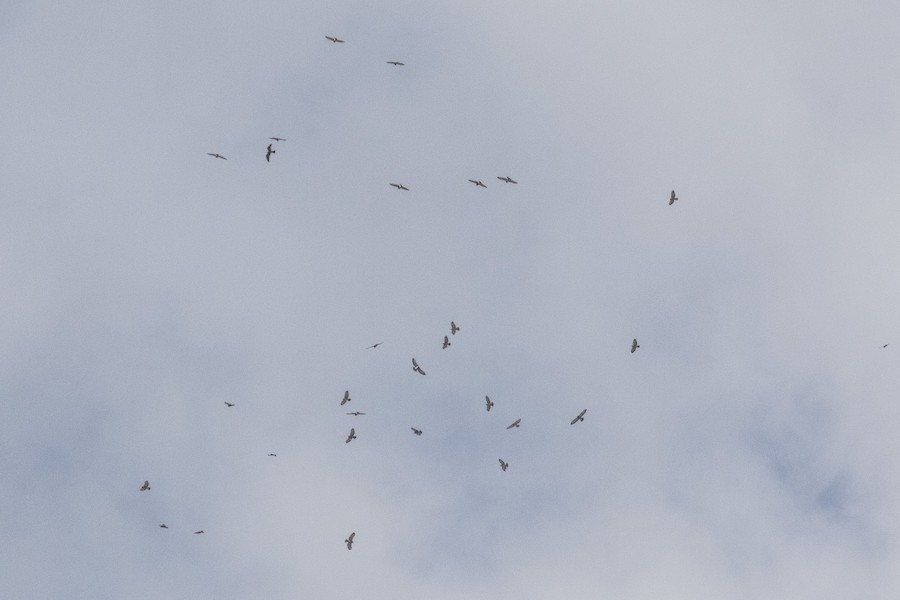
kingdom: Animalia
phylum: Chordata
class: Aves
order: Accipitriformes
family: Accipitridae
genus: Ictinia
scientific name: Ictinia mississippiensis
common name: Mississippi kite
